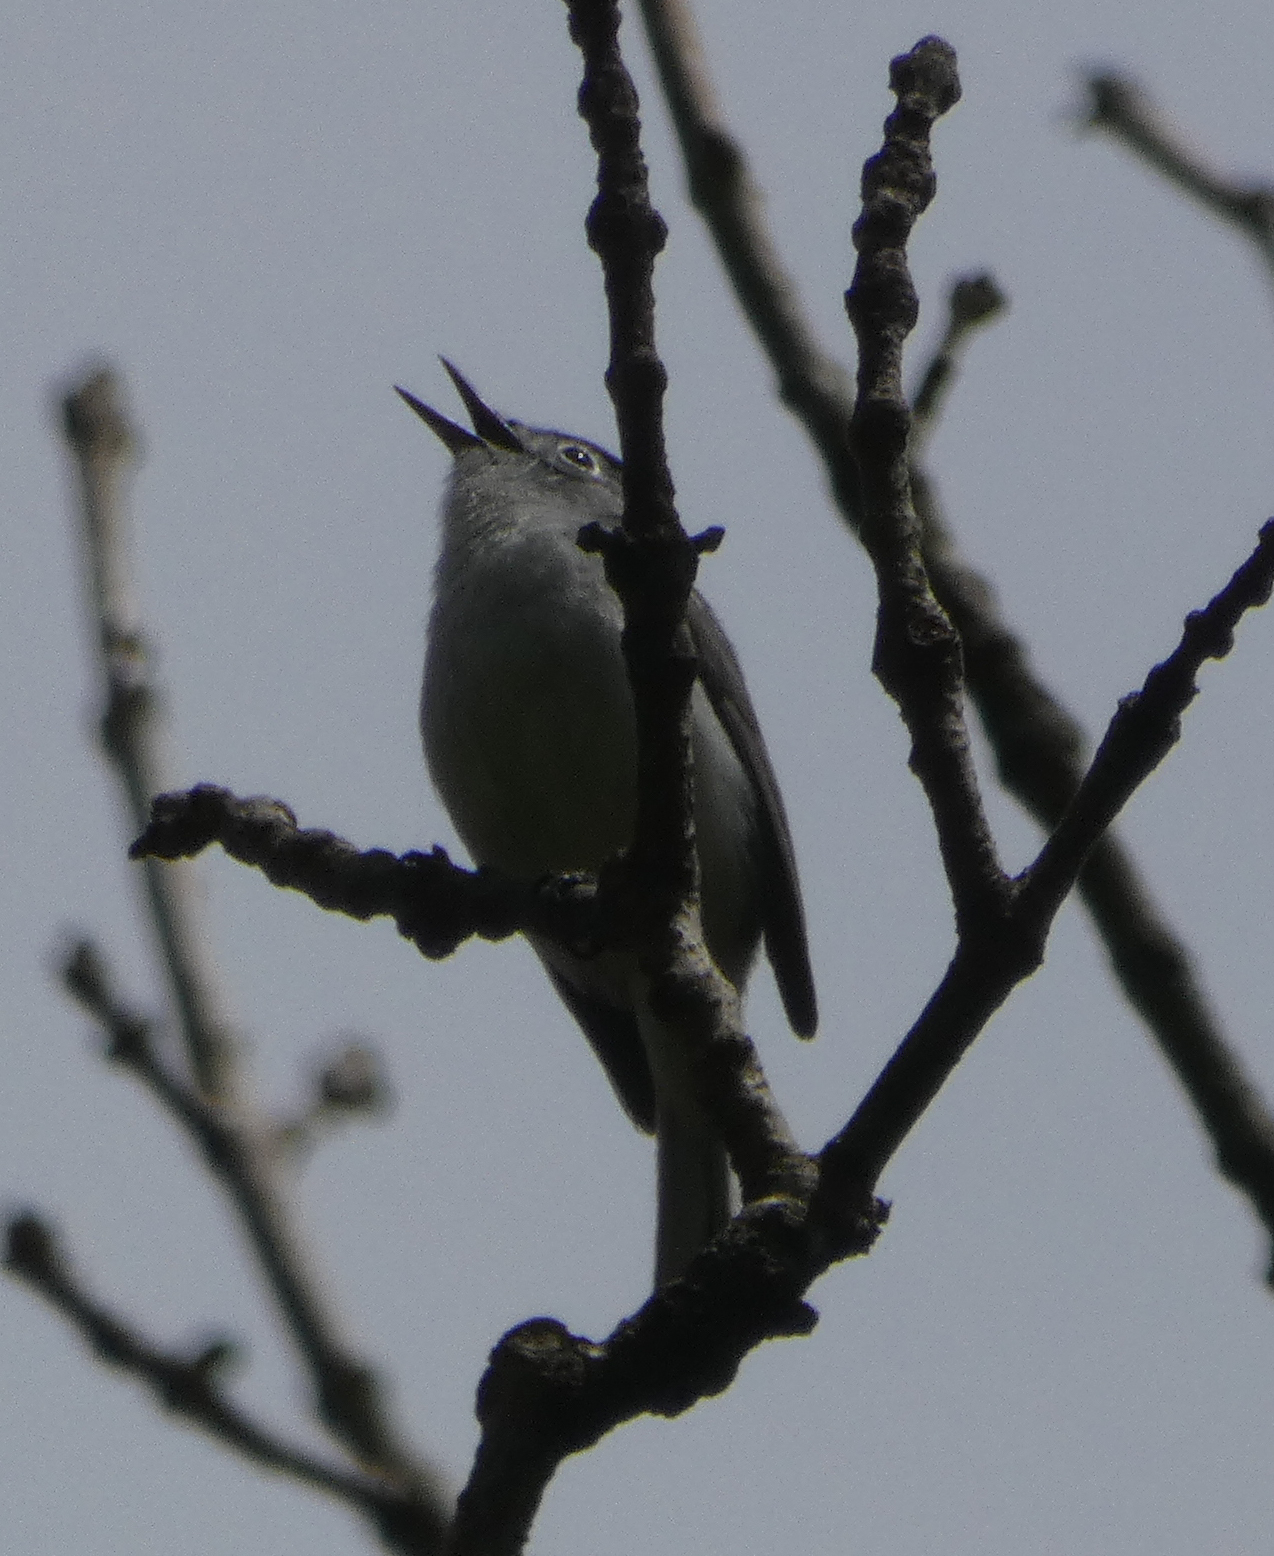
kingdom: Animalia
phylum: Chordata
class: Aves
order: Passeriformes
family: Polioptilidae
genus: Polioptila
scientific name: Polioptila caerulea
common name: Blue-gray gnatcatcher
